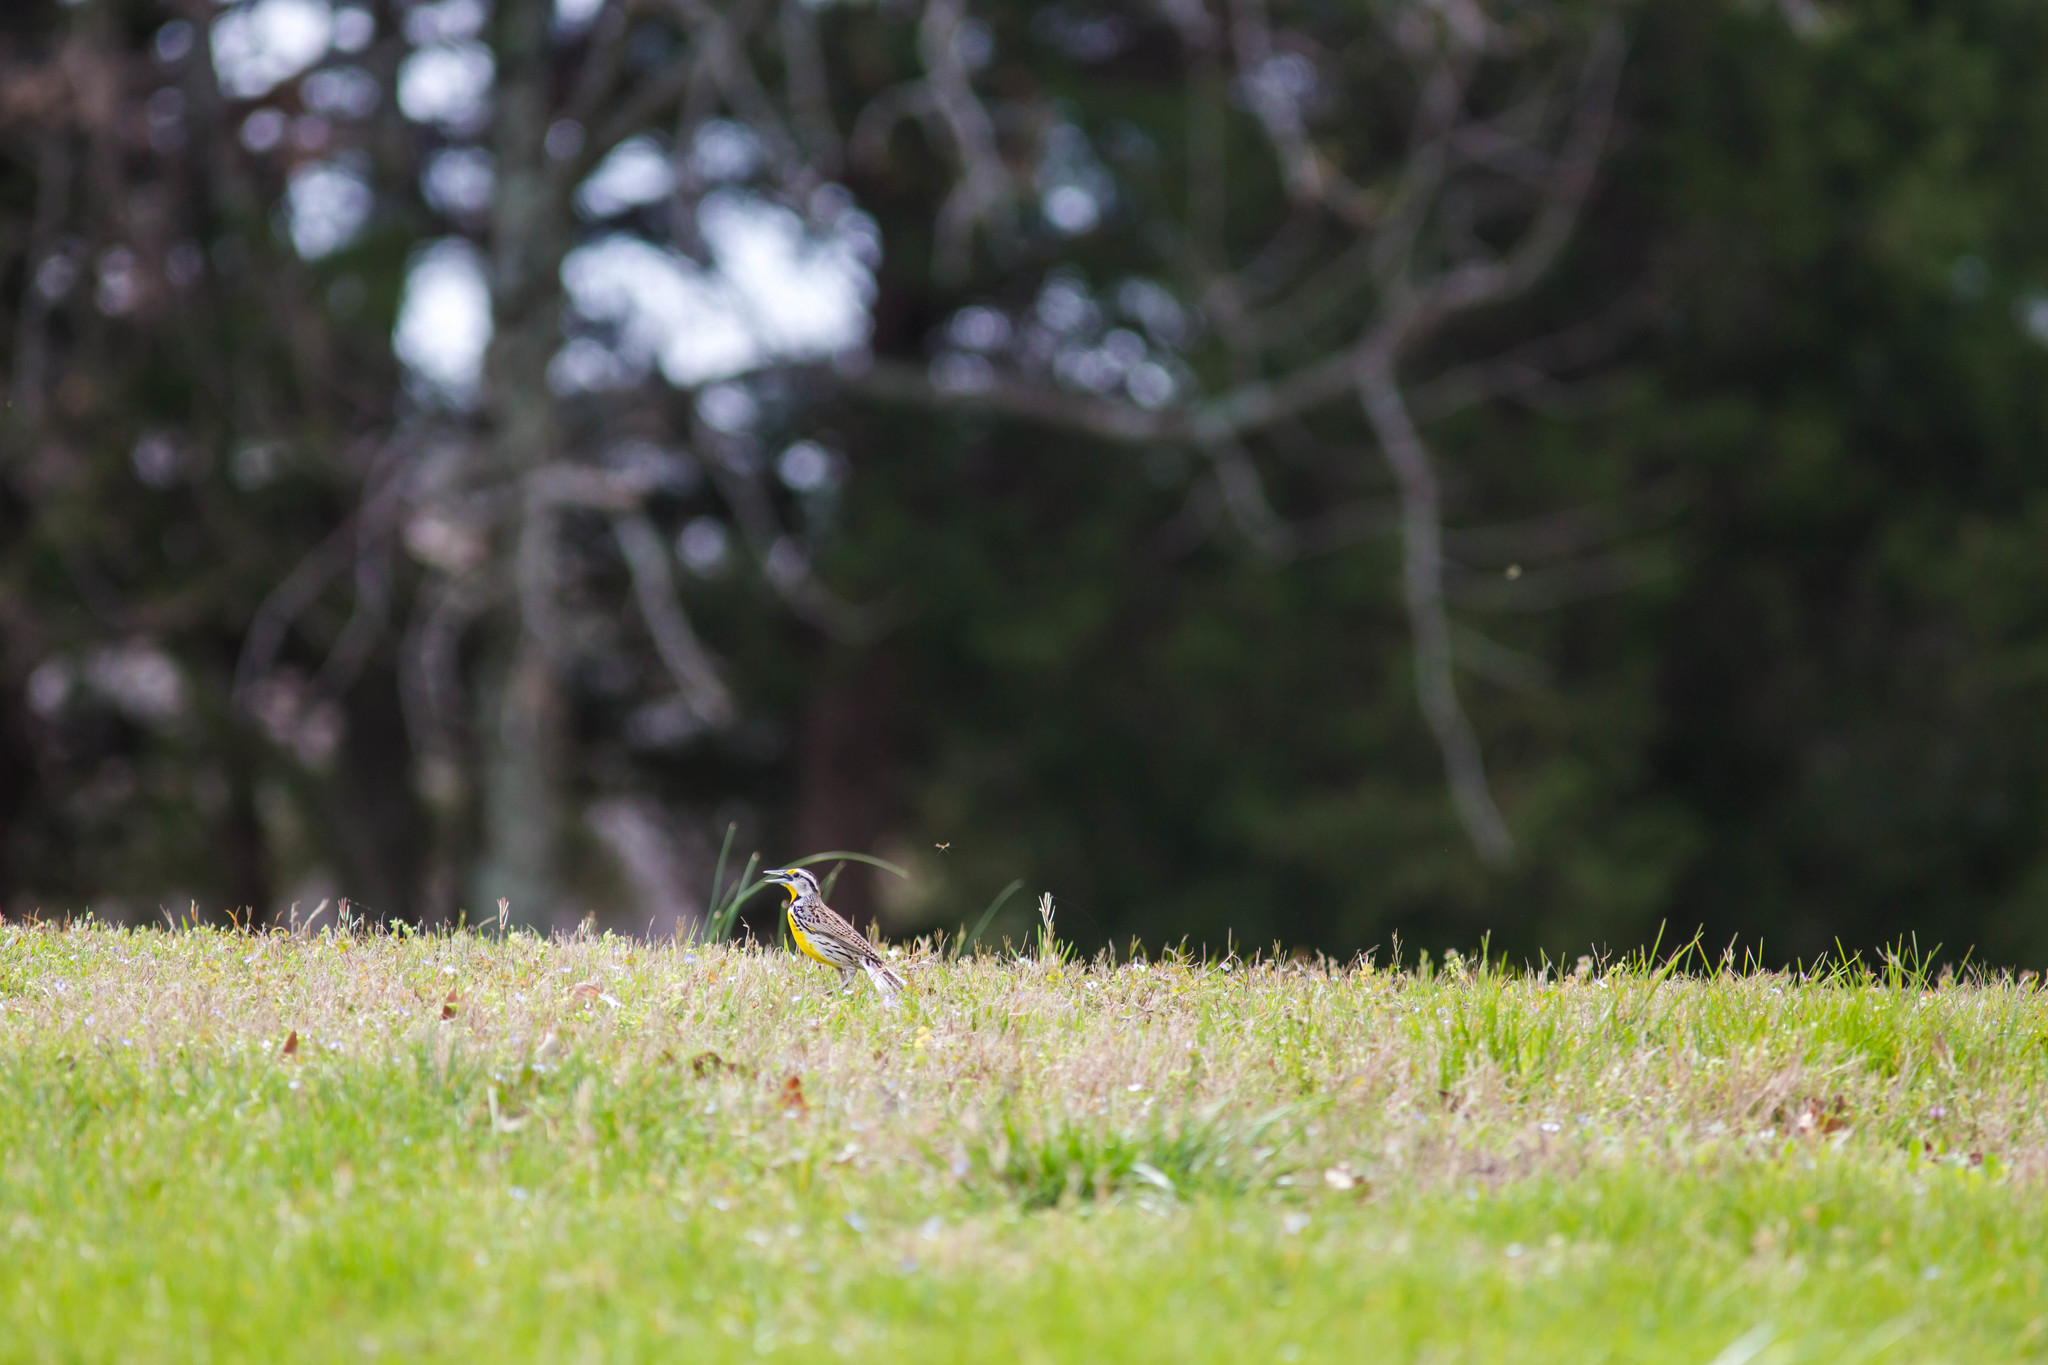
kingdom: Animalia
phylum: Chordata
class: Aves
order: Passeriformes
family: Icteridae
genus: Sturnella
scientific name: Sturnella magna
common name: Eastern meadowlark
